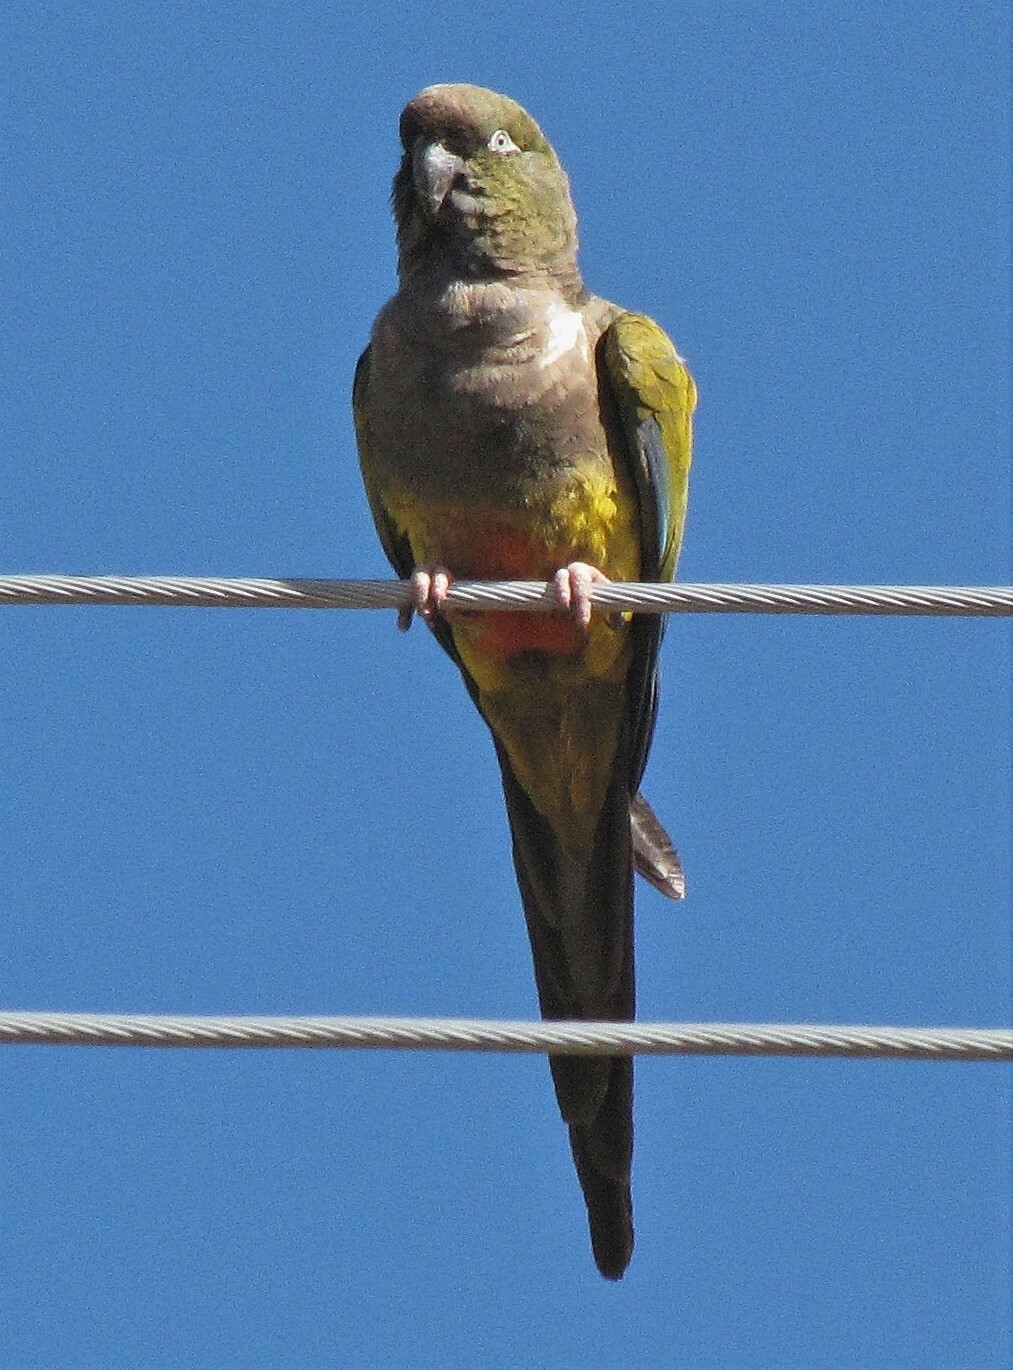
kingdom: Animalia
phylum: Chordata
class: Aves
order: Psittaciformes
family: Psittacidae
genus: Cyanoliseus
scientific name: Cyanoliseus patagonus
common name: Burrowing parrot
